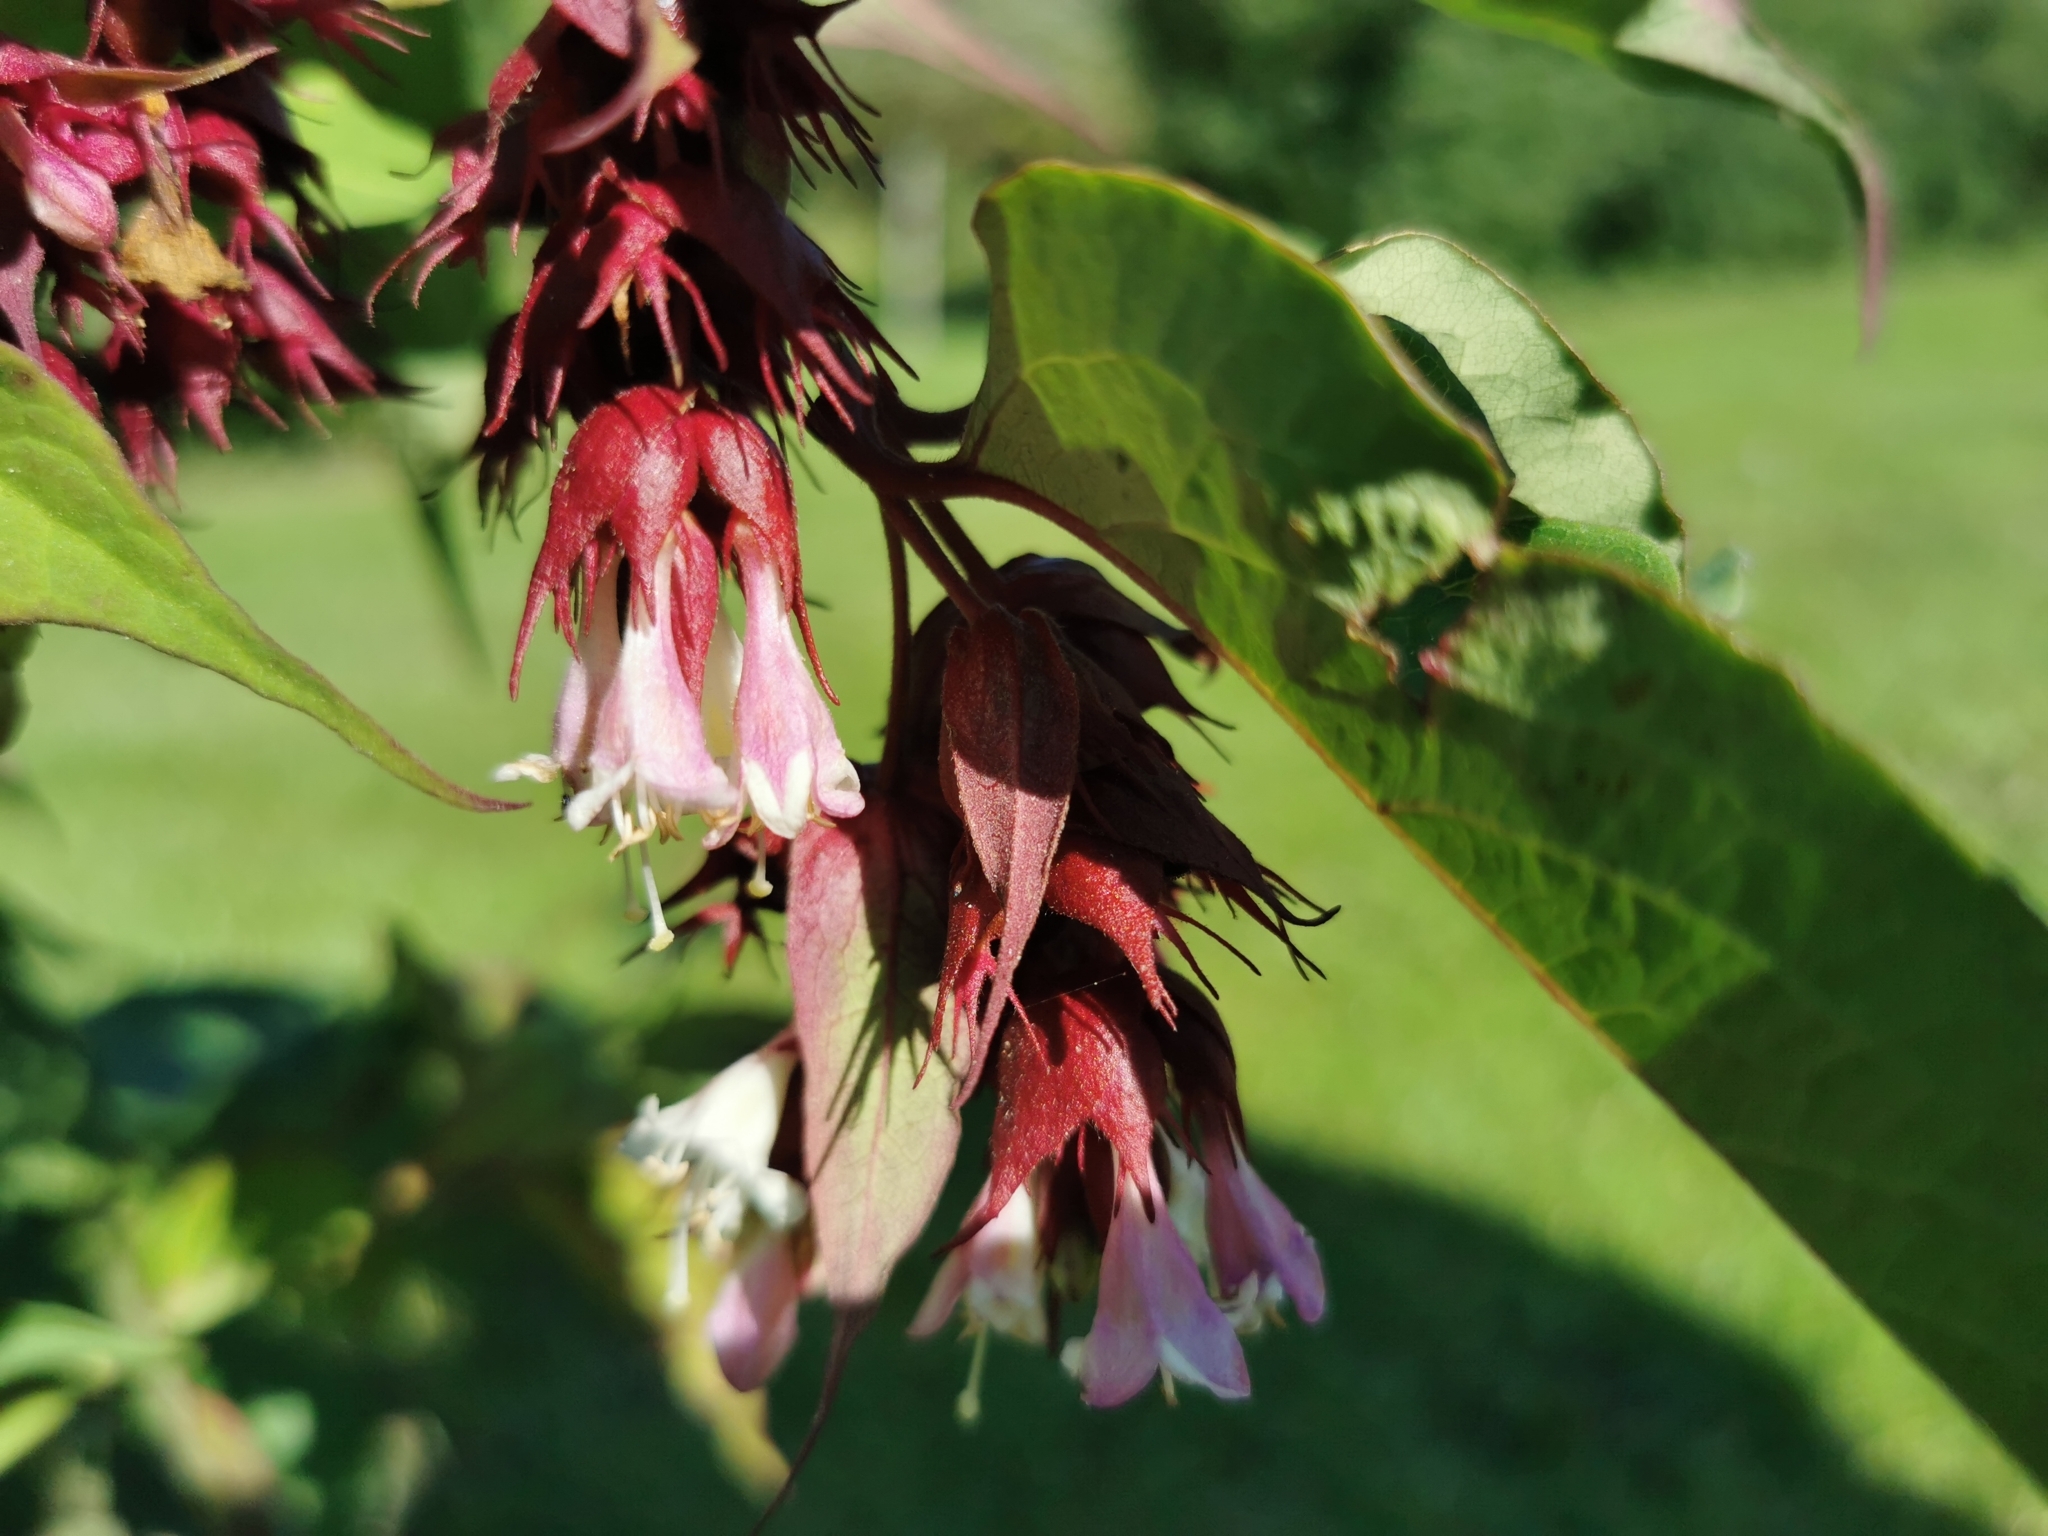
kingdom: Plantae
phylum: Tracheophyta
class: Magnoliopsida
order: Dipsacales
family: Caprifoliaceae
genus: Leycesteria
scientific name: Leycesteria formosa
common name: Himalayan honeysuckle
